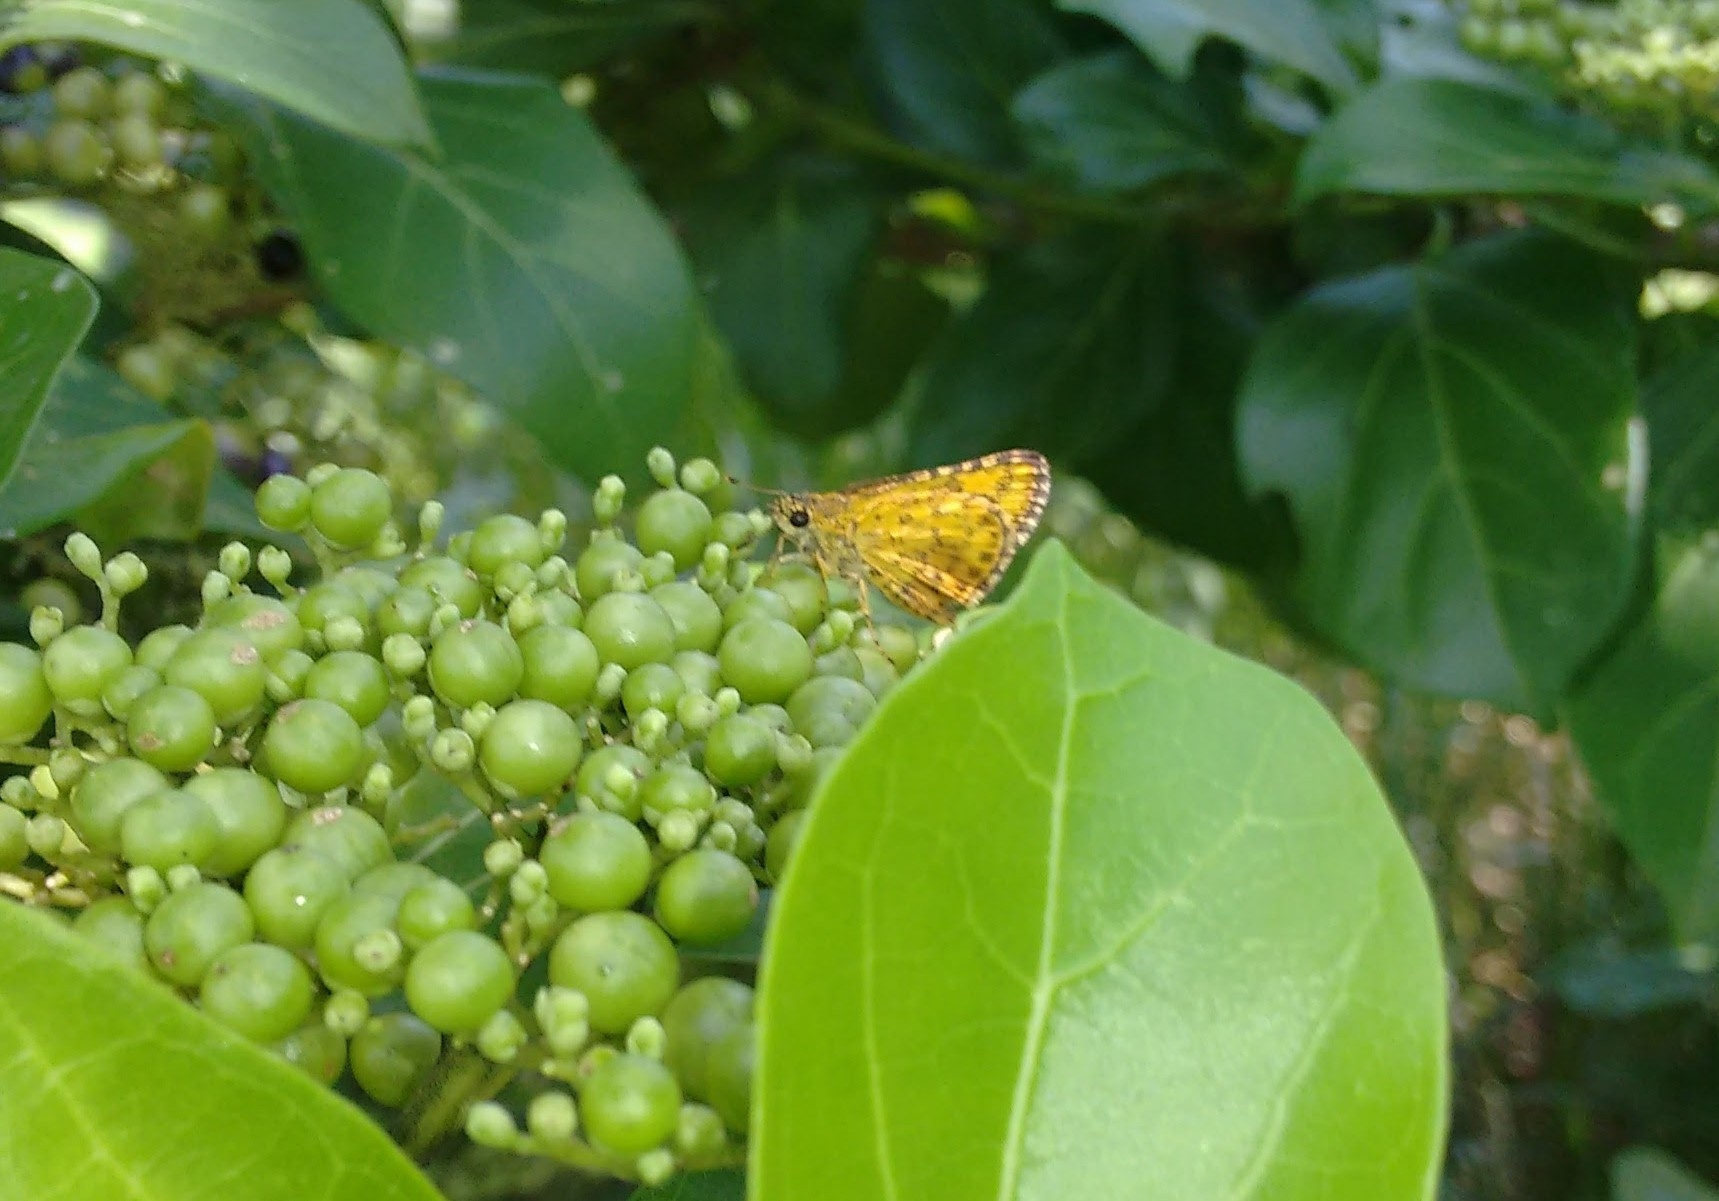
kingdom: Animalia
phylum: Arthropoda
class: Insecta
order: Lepidoptera
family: Hesperiidae
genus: Ampittia
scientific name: Ampittia dioscorides
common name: Common bush hopper
